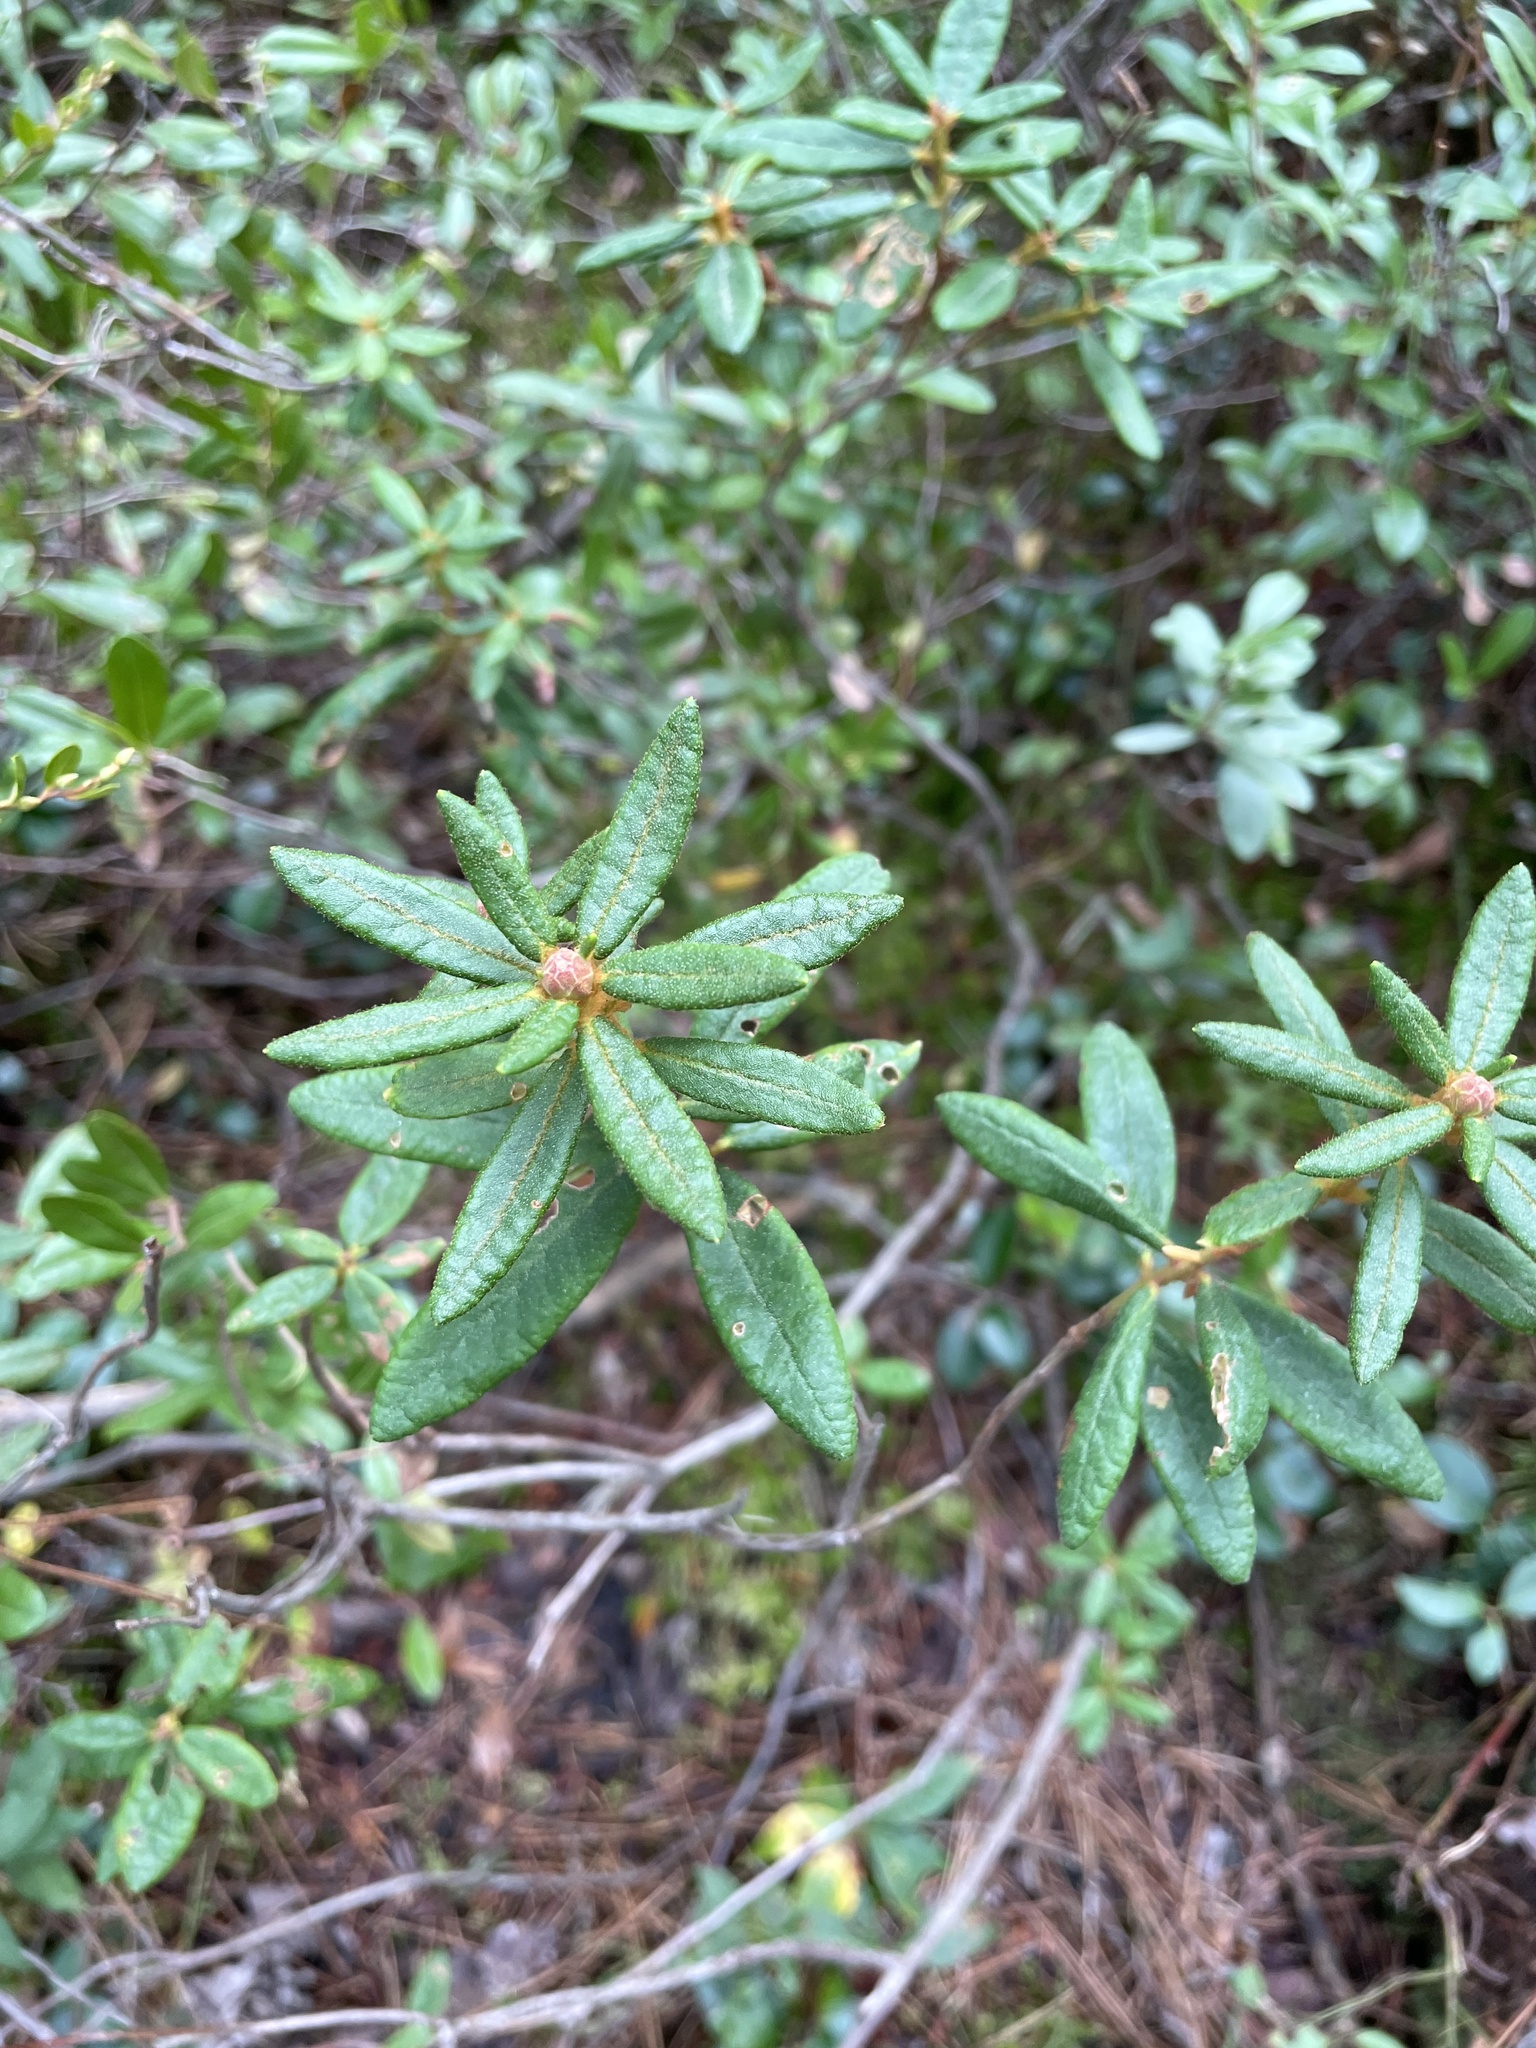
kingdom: Plantae
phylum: Tracheophyta
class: Magnoliopsida
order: Ericales
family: Ericaceae
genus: Rhododendron
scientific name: Rhododendron groenlandicum
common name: Bog labrador tea
